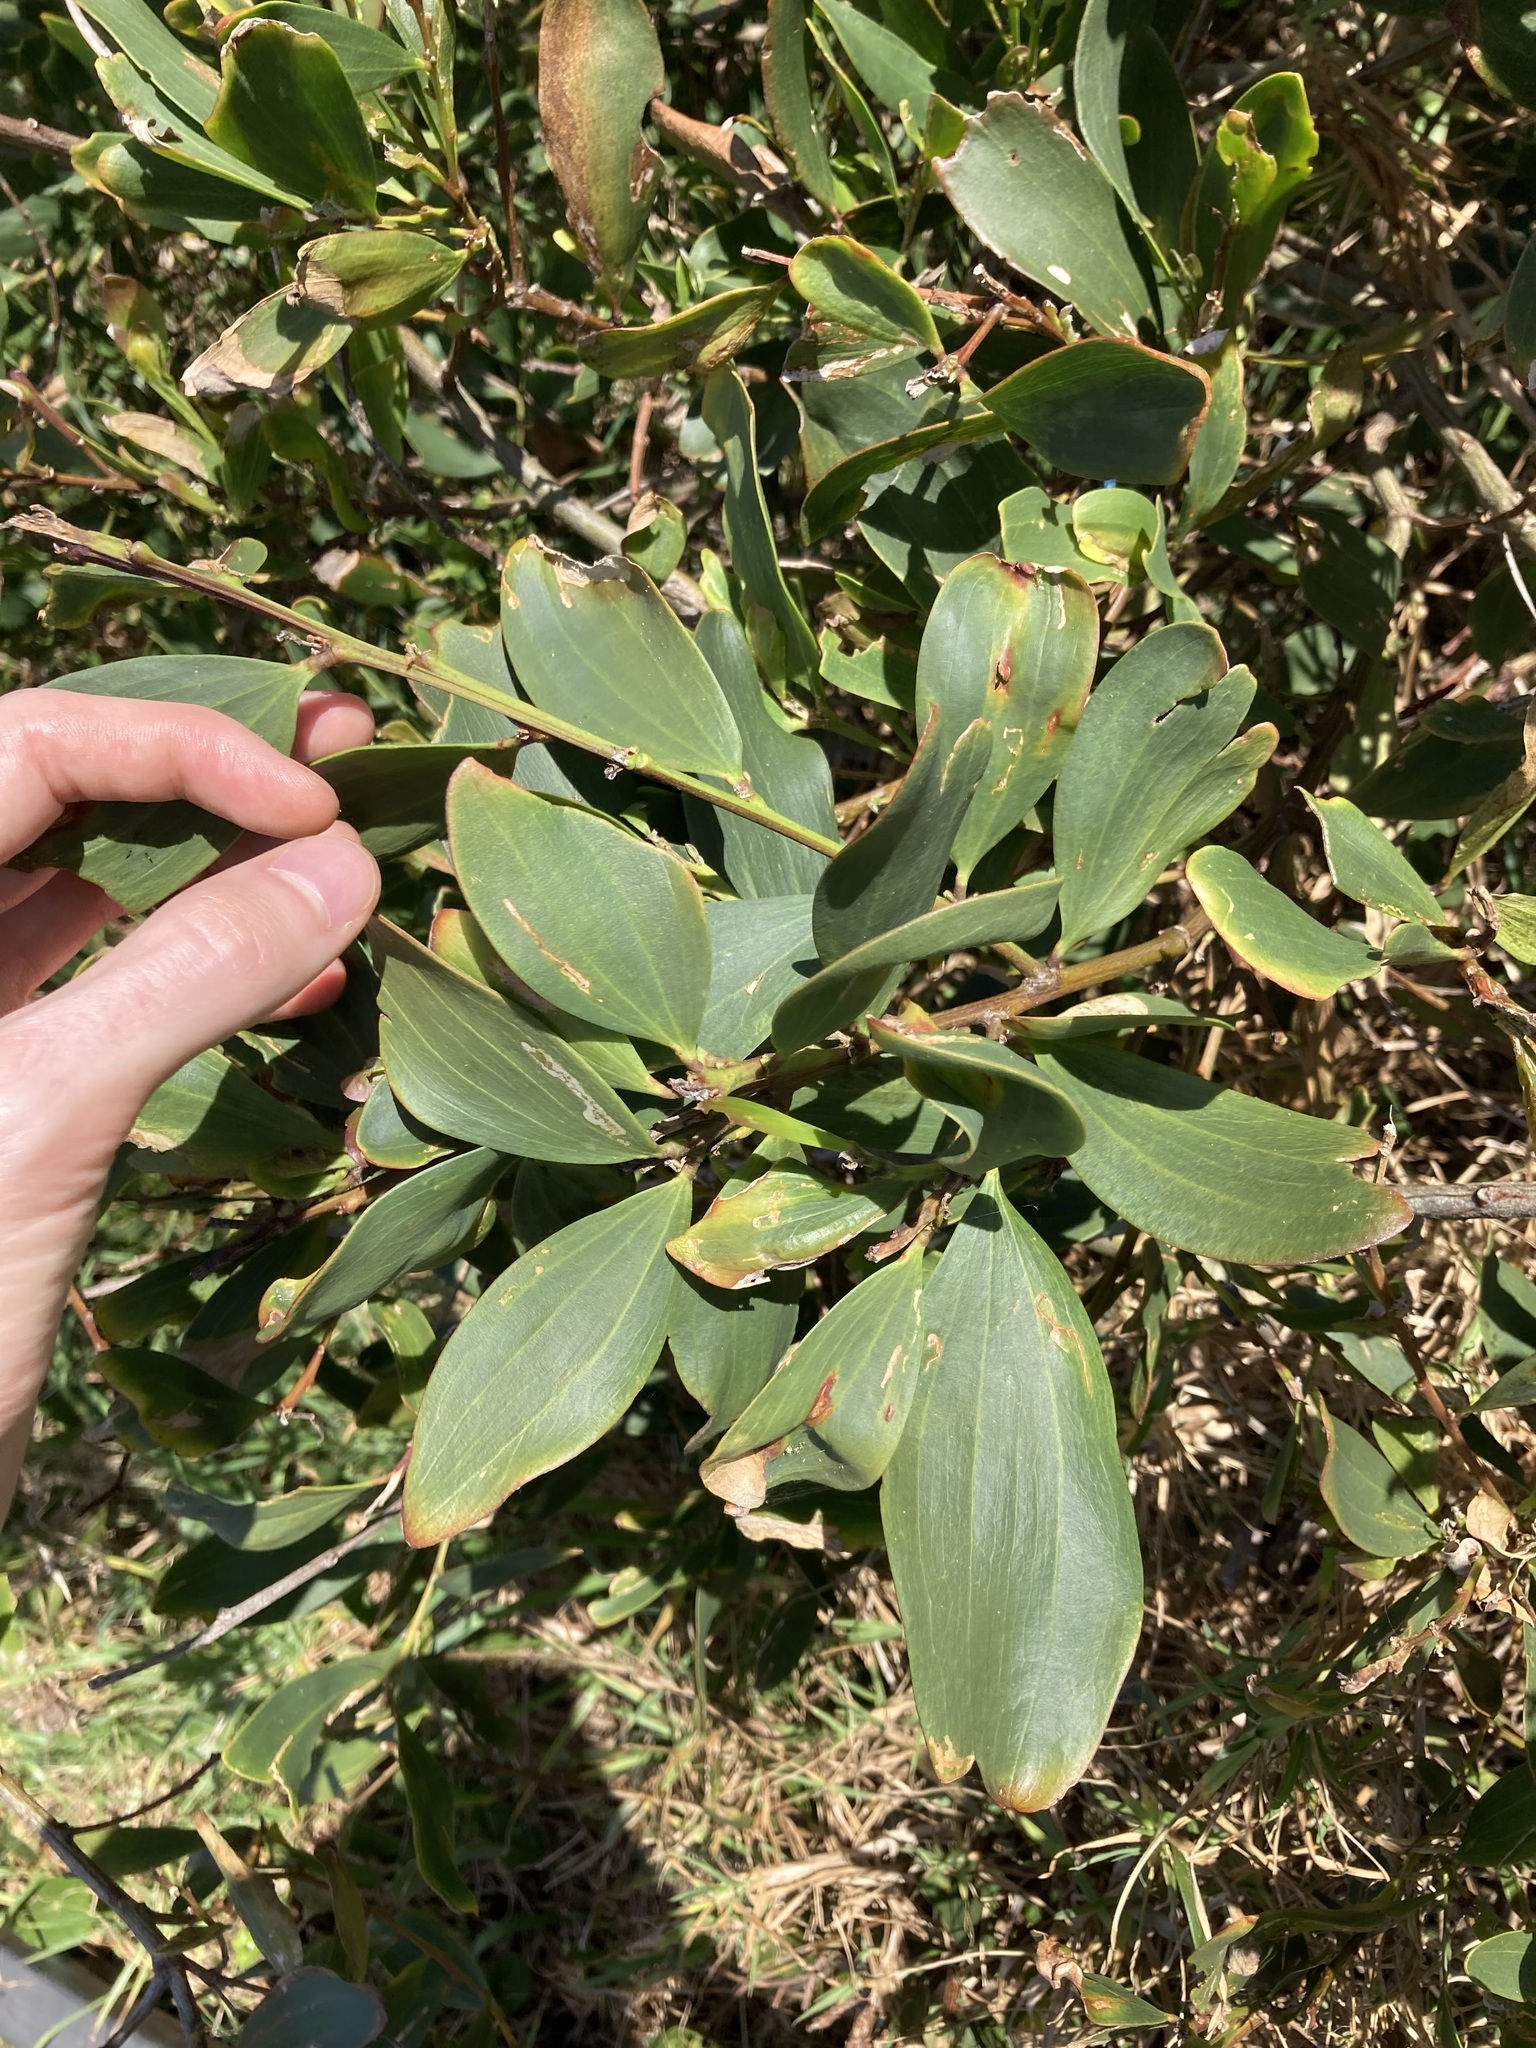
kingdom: Plantae
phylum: Tracheophyta
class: Magnoliopsida
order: Fabales
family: Fabaceae
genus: Acacia
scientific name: Acacia longifolia
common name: Sydney golden wattle
